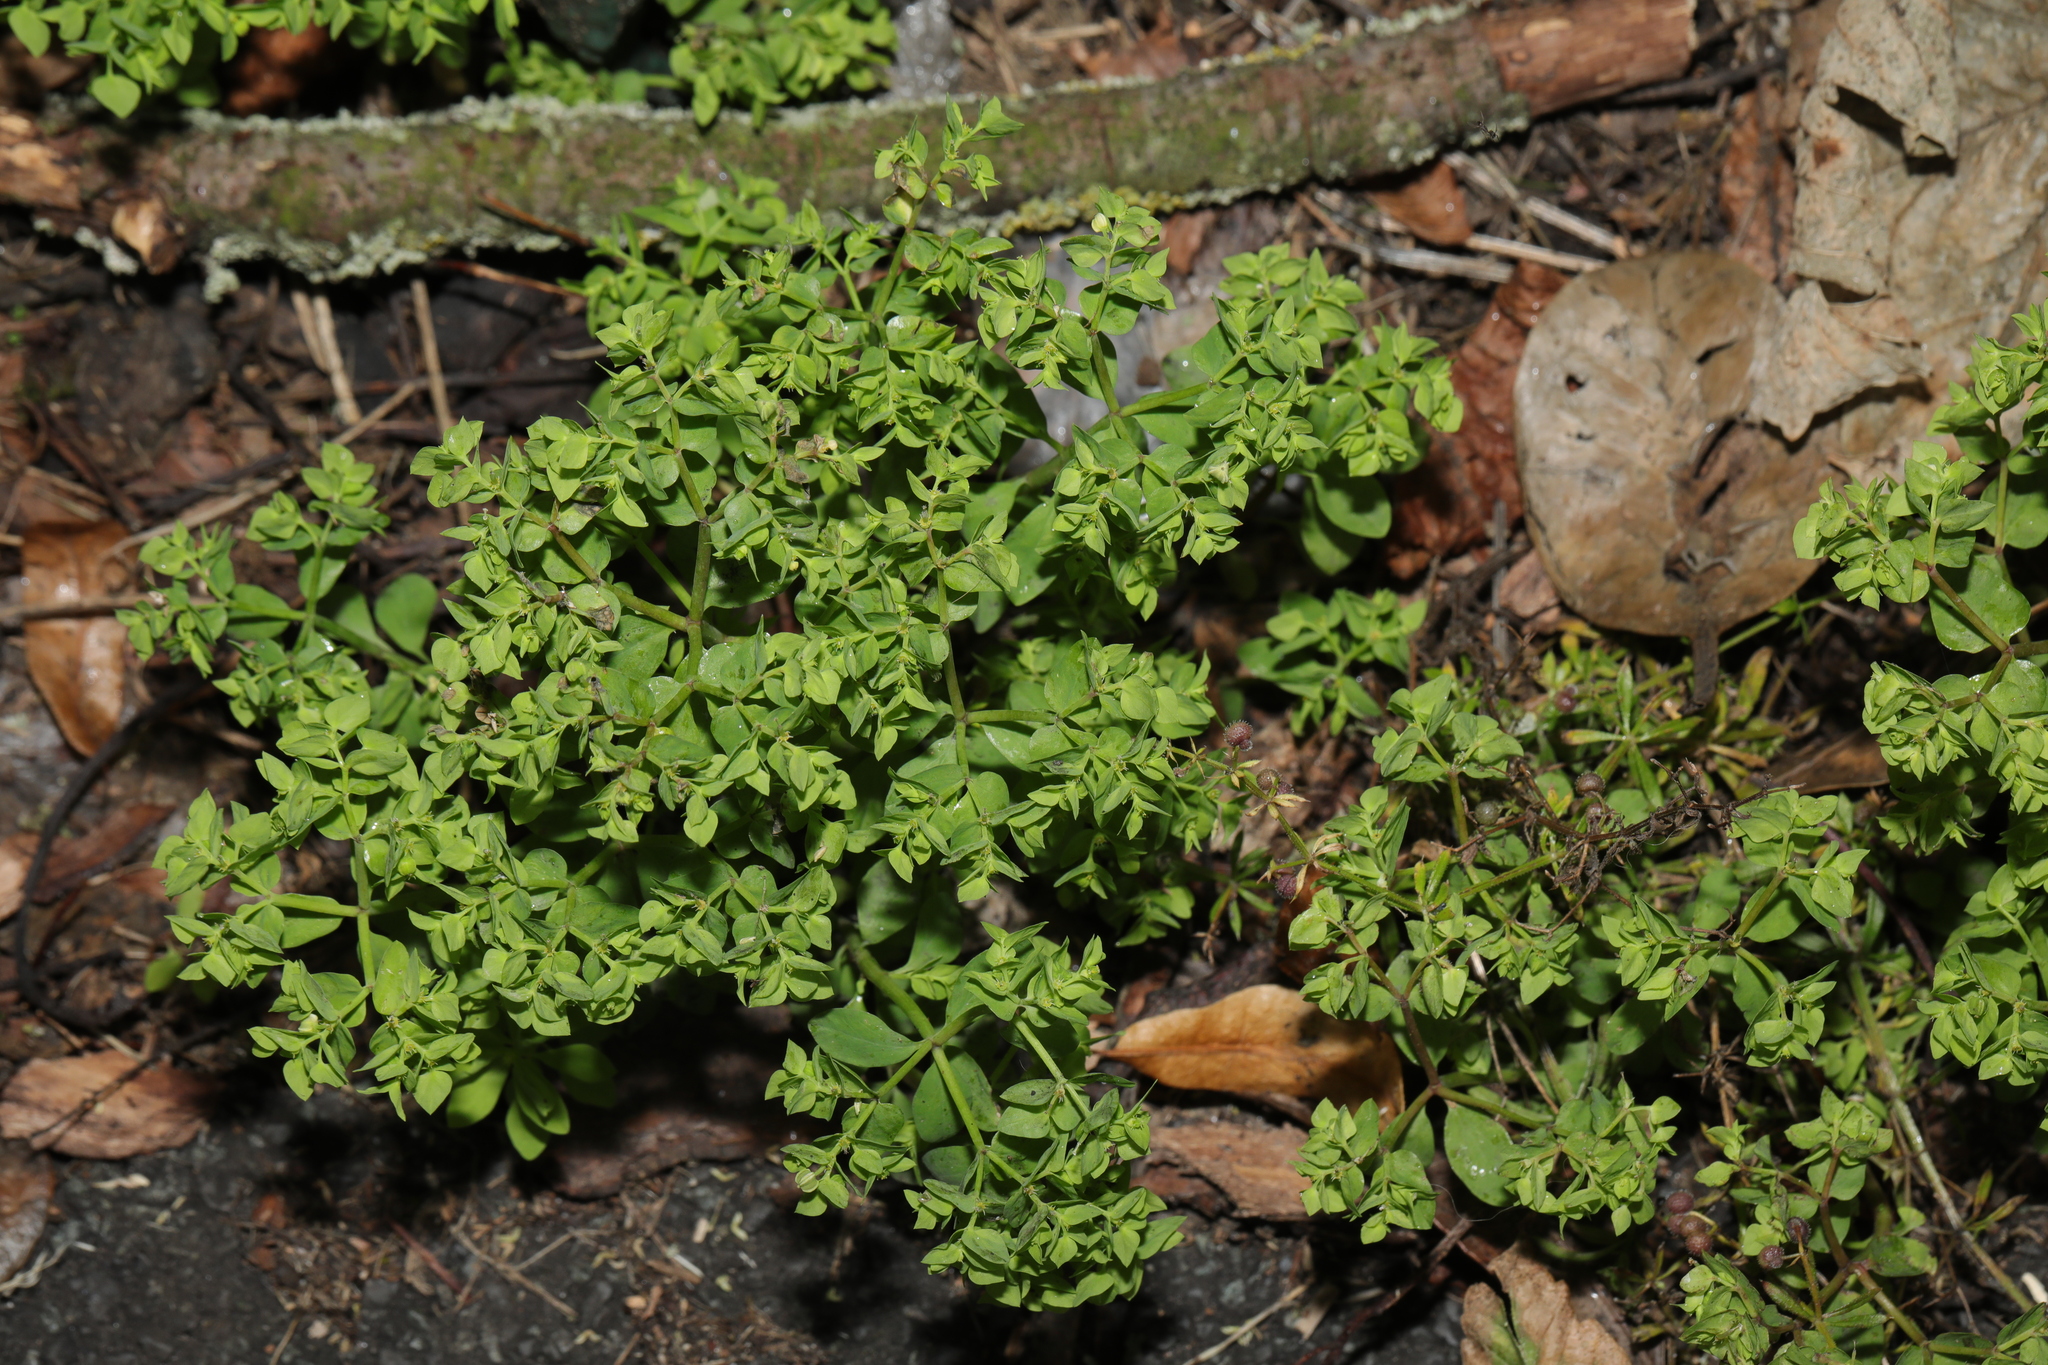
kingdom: Plantae
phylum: Tracheophyta
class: Magnoliopsida
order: Malpighiales
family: Euphorbiaceae
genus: Euphorbia
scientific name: Euphorbia peplus
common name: Petty spurge
